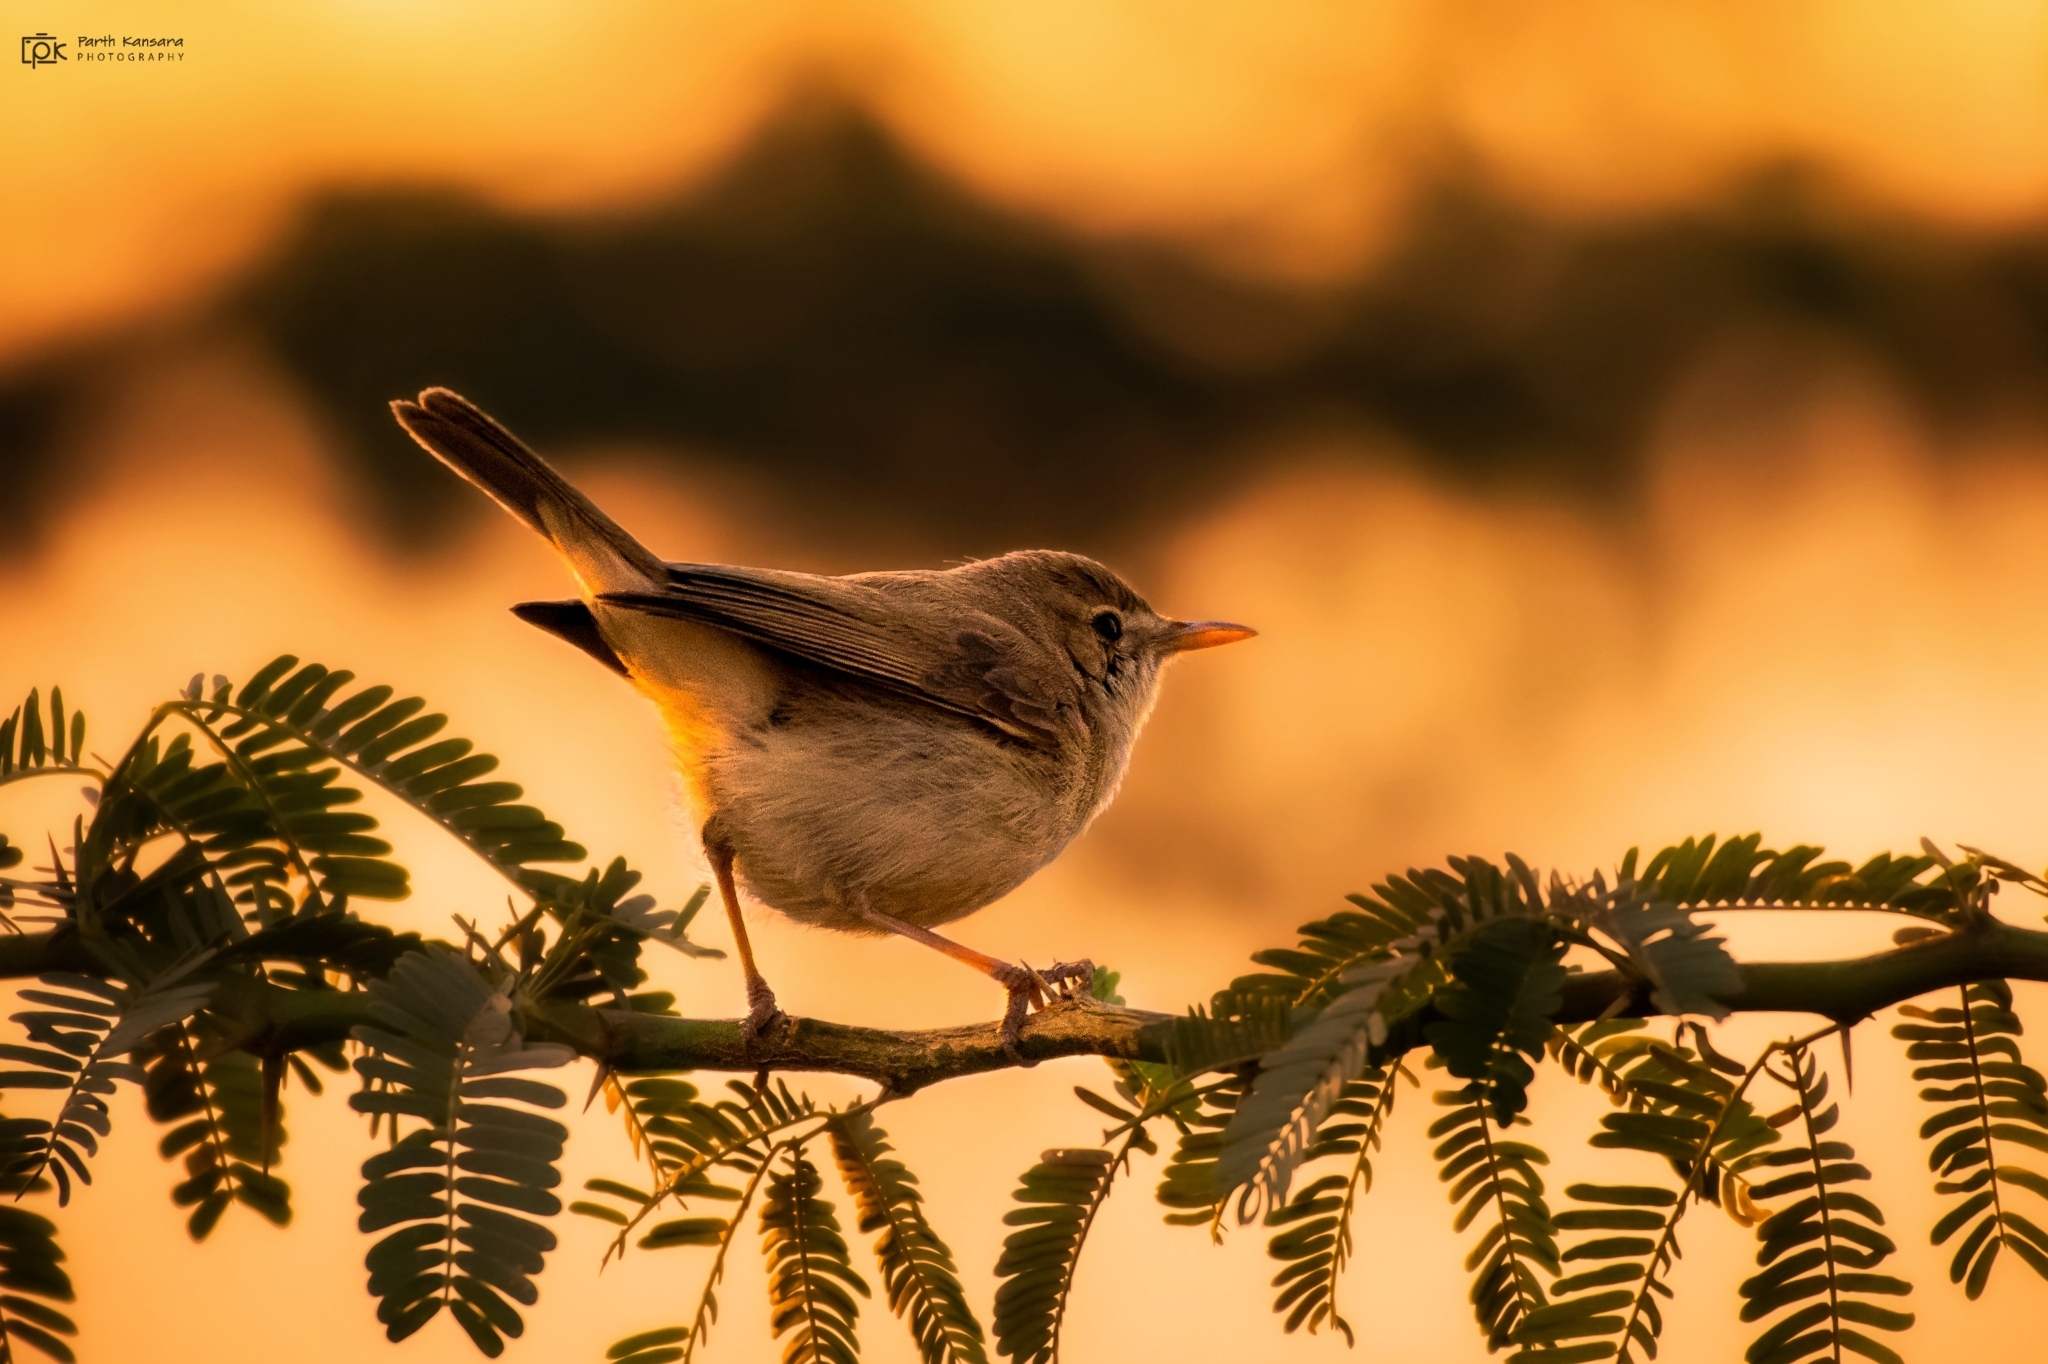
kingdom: Animalia
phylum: Chordata
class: Aves
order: Passeriformes
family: Acrocephalidae
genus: Iduna
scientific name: Iduna rama
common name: Sykes's warbler
